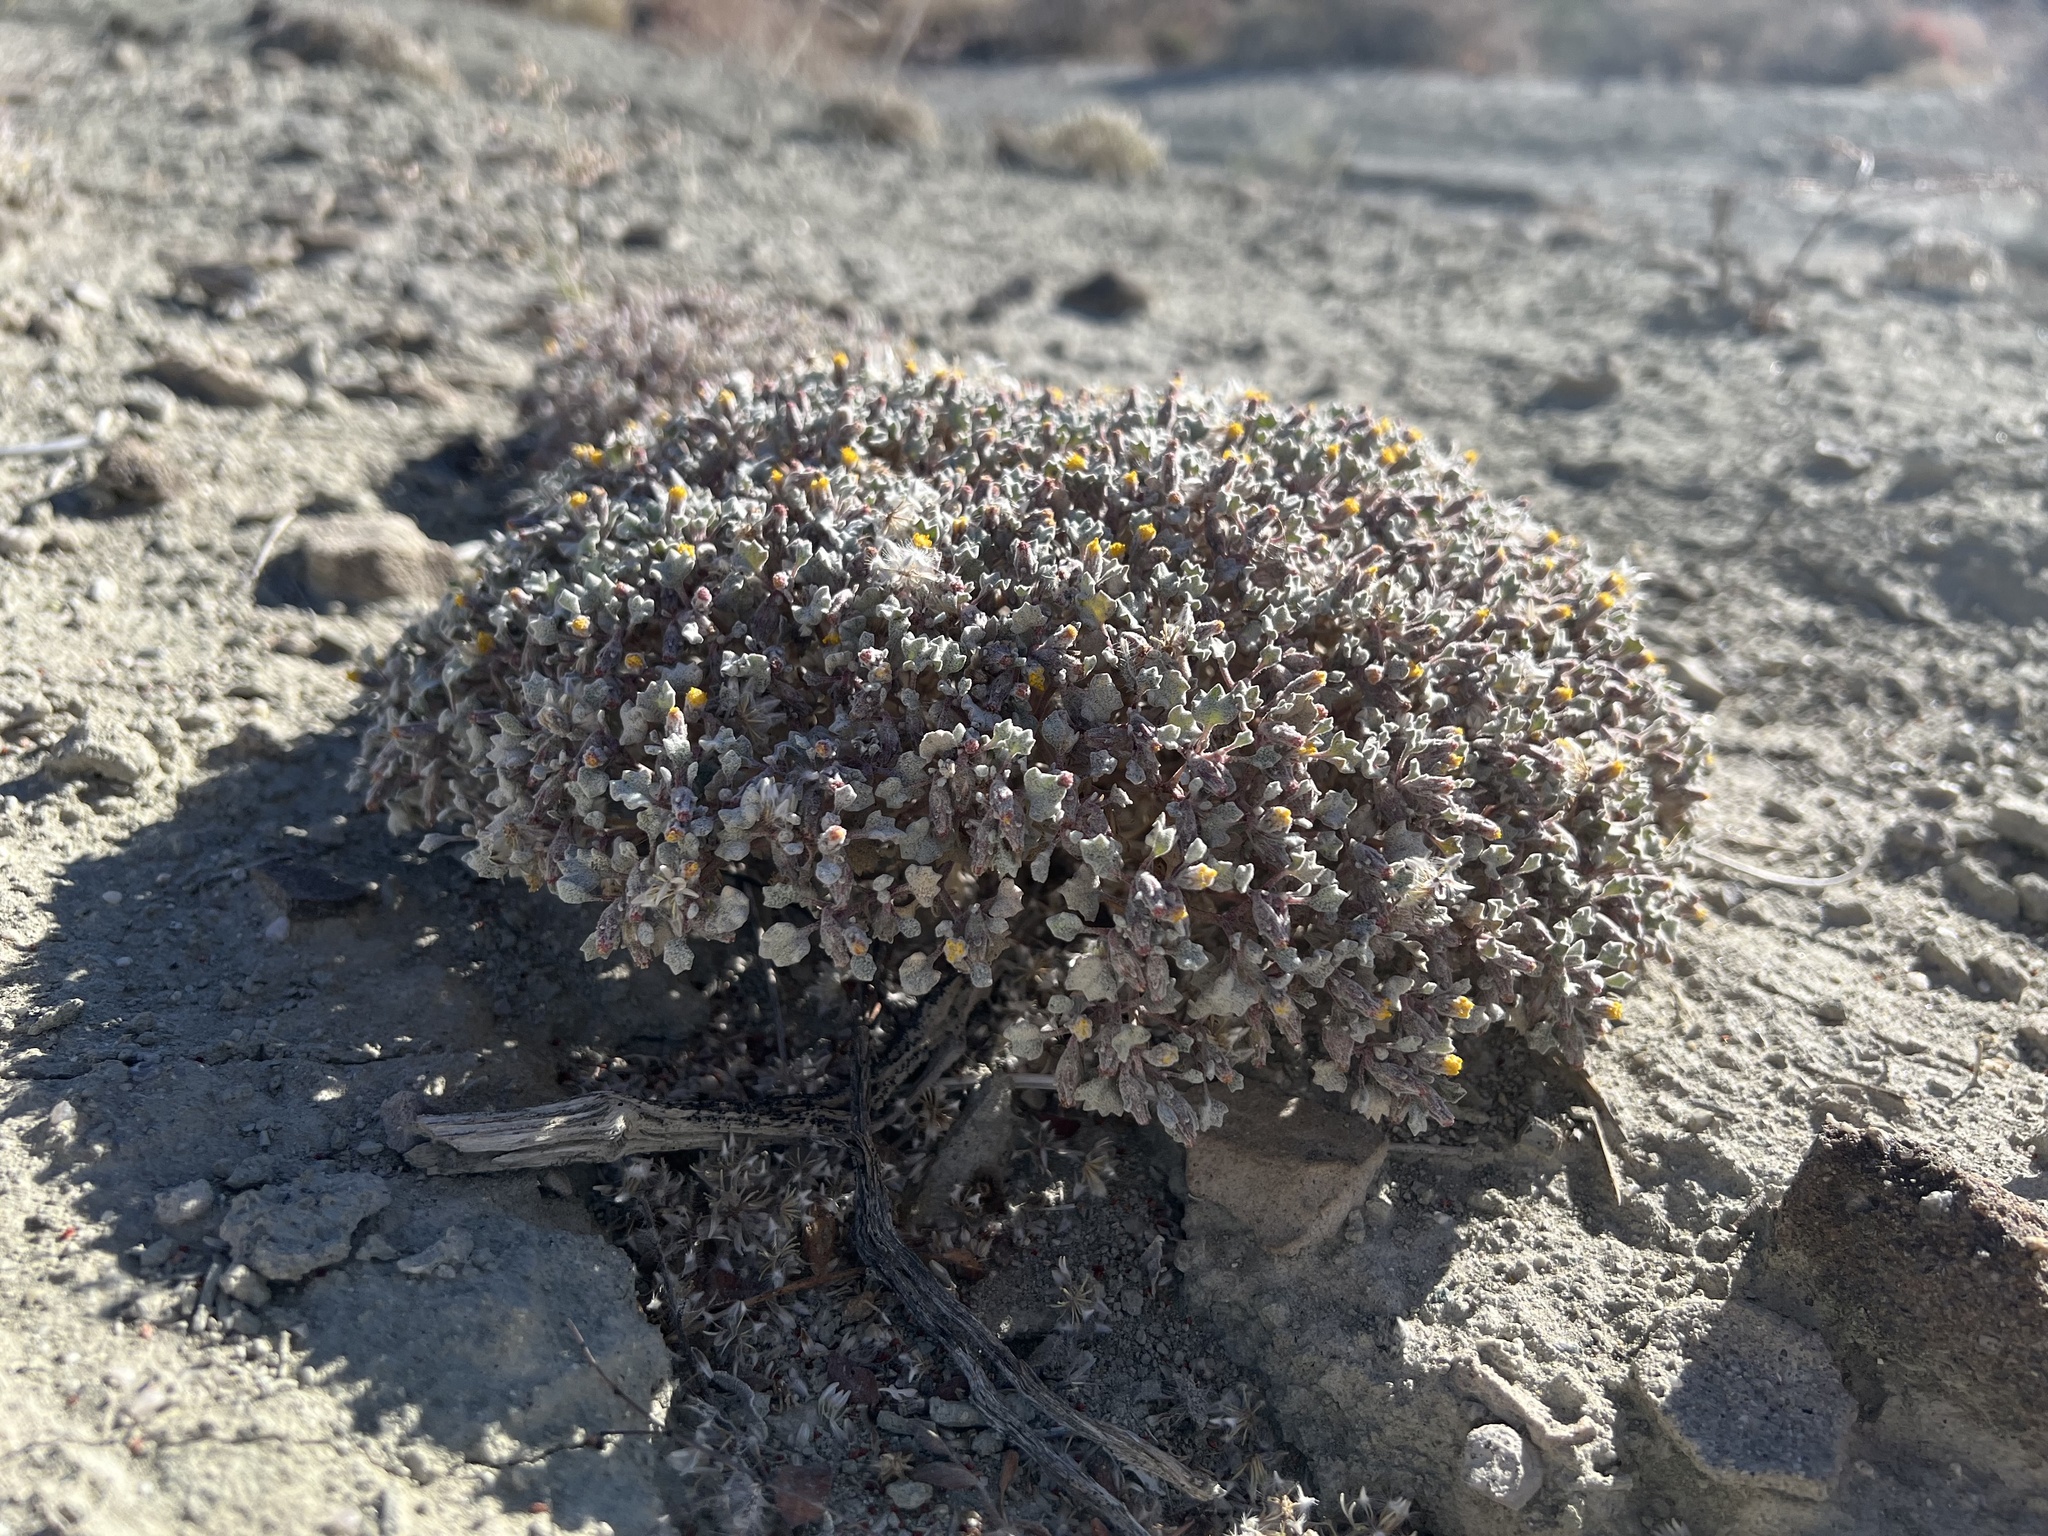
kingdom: Plantae
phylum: Tracheophyta
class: Magnoliopsida
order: Asterales
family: Asteraceae
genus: Psathyrotes
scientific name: Psathyrotes annua
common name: Mealy rosettes
